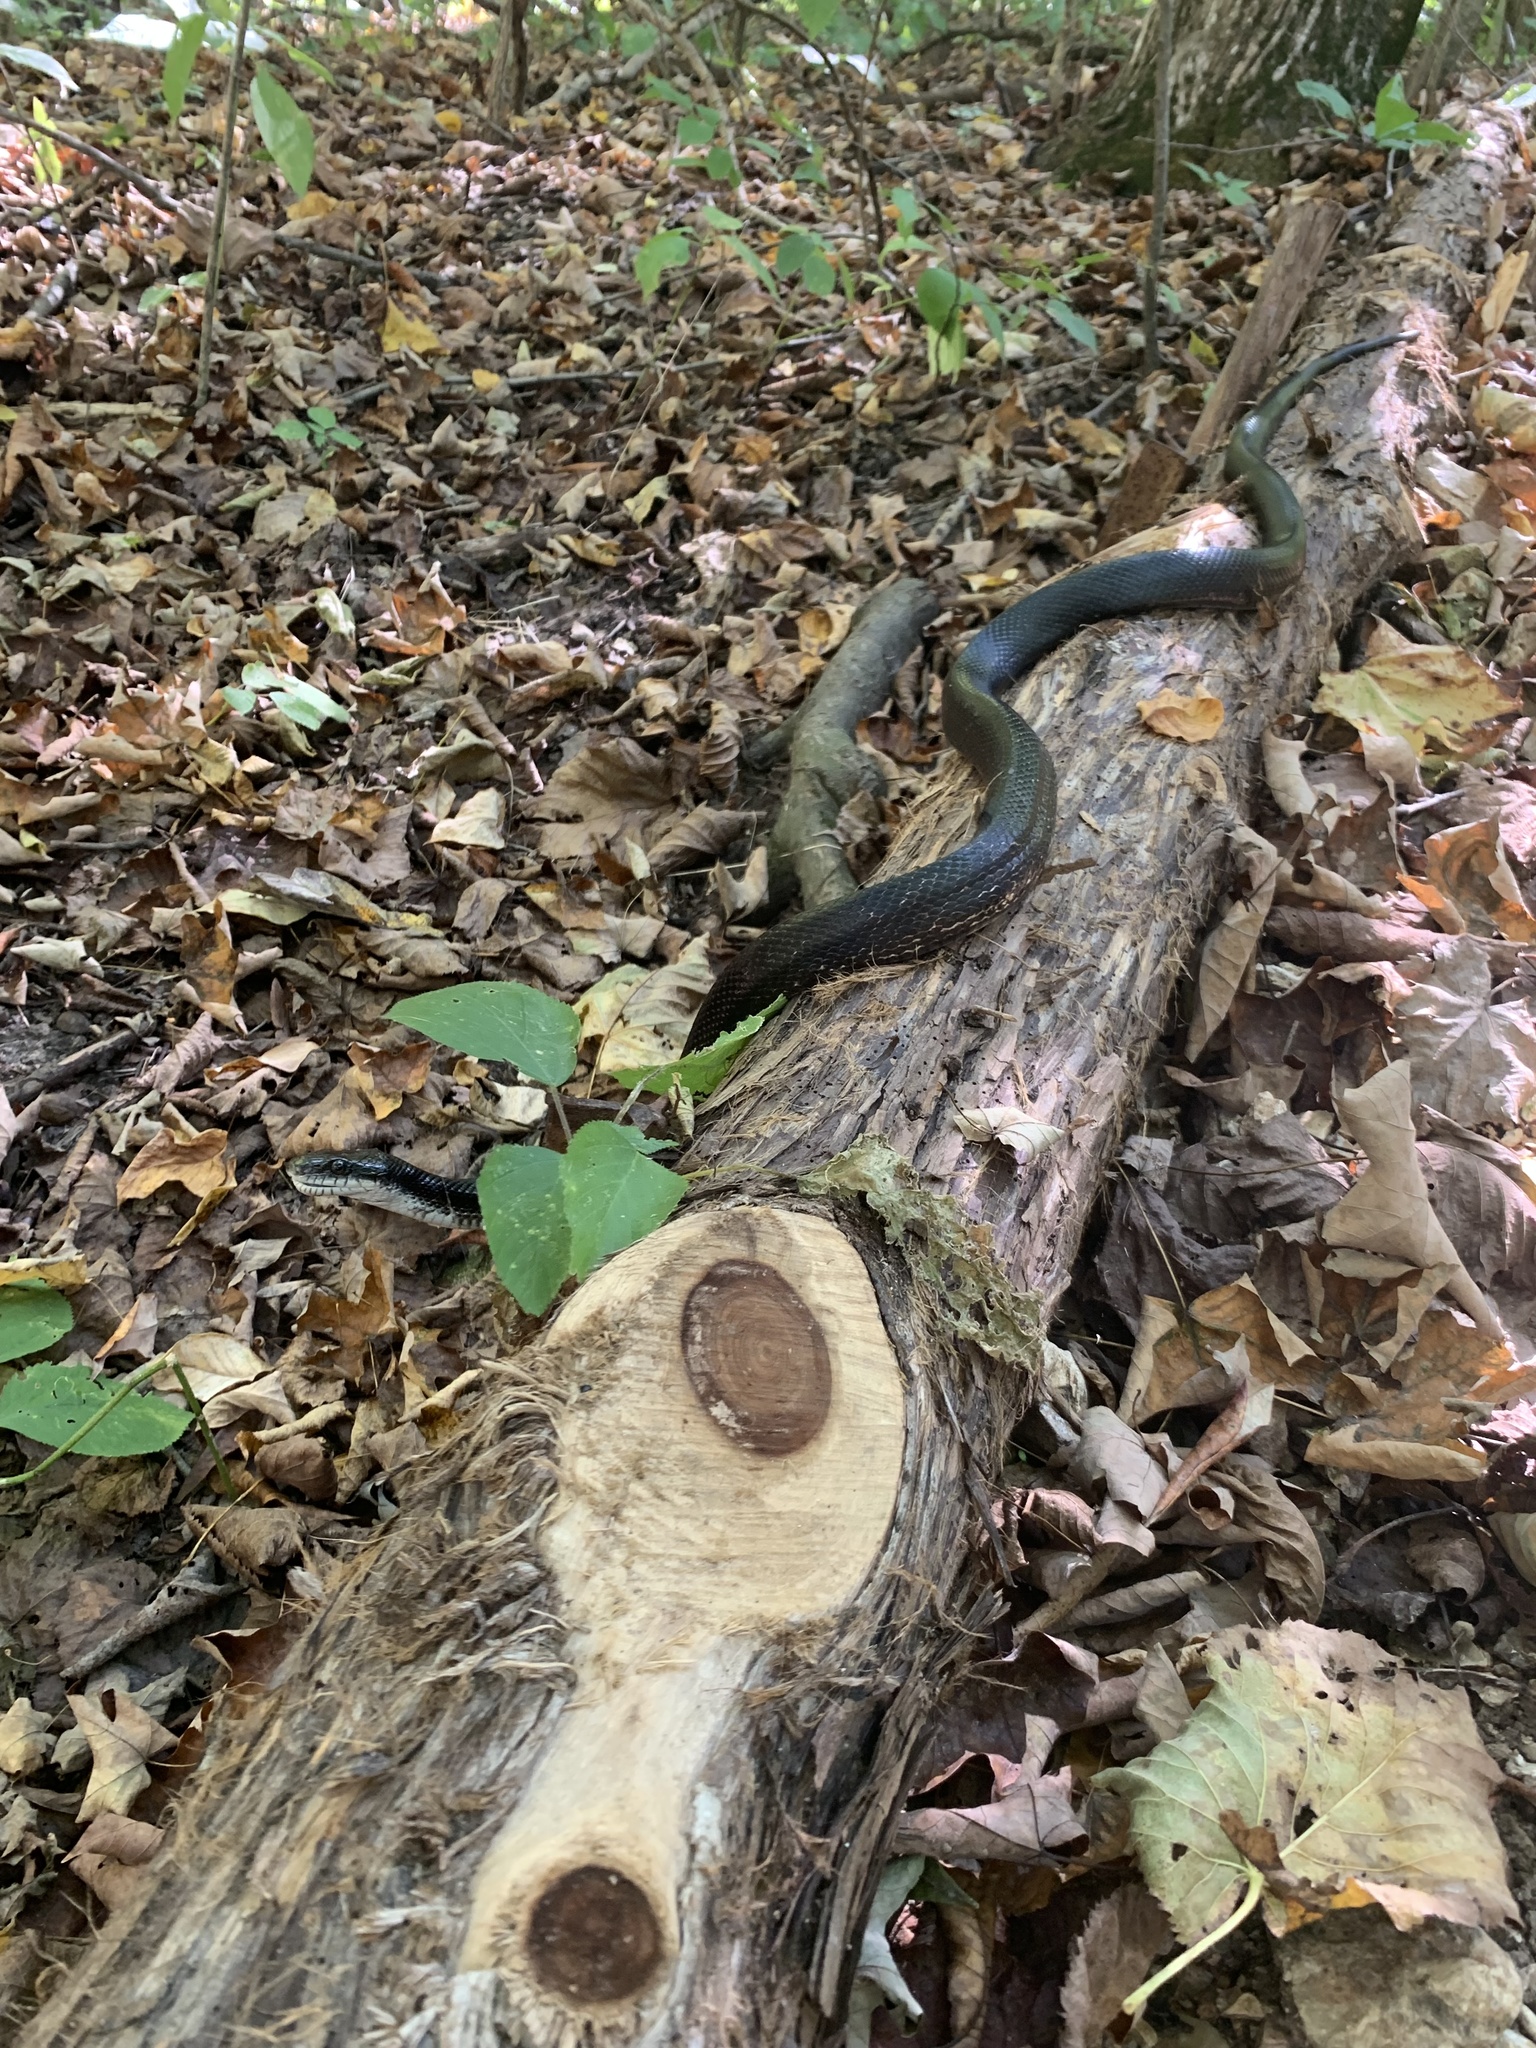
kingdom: Animalia
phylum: Chordata
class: Squamata
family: Colubridae
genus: Pantherophis
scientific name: Pantherophis spiloides
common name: Gray rat snake
